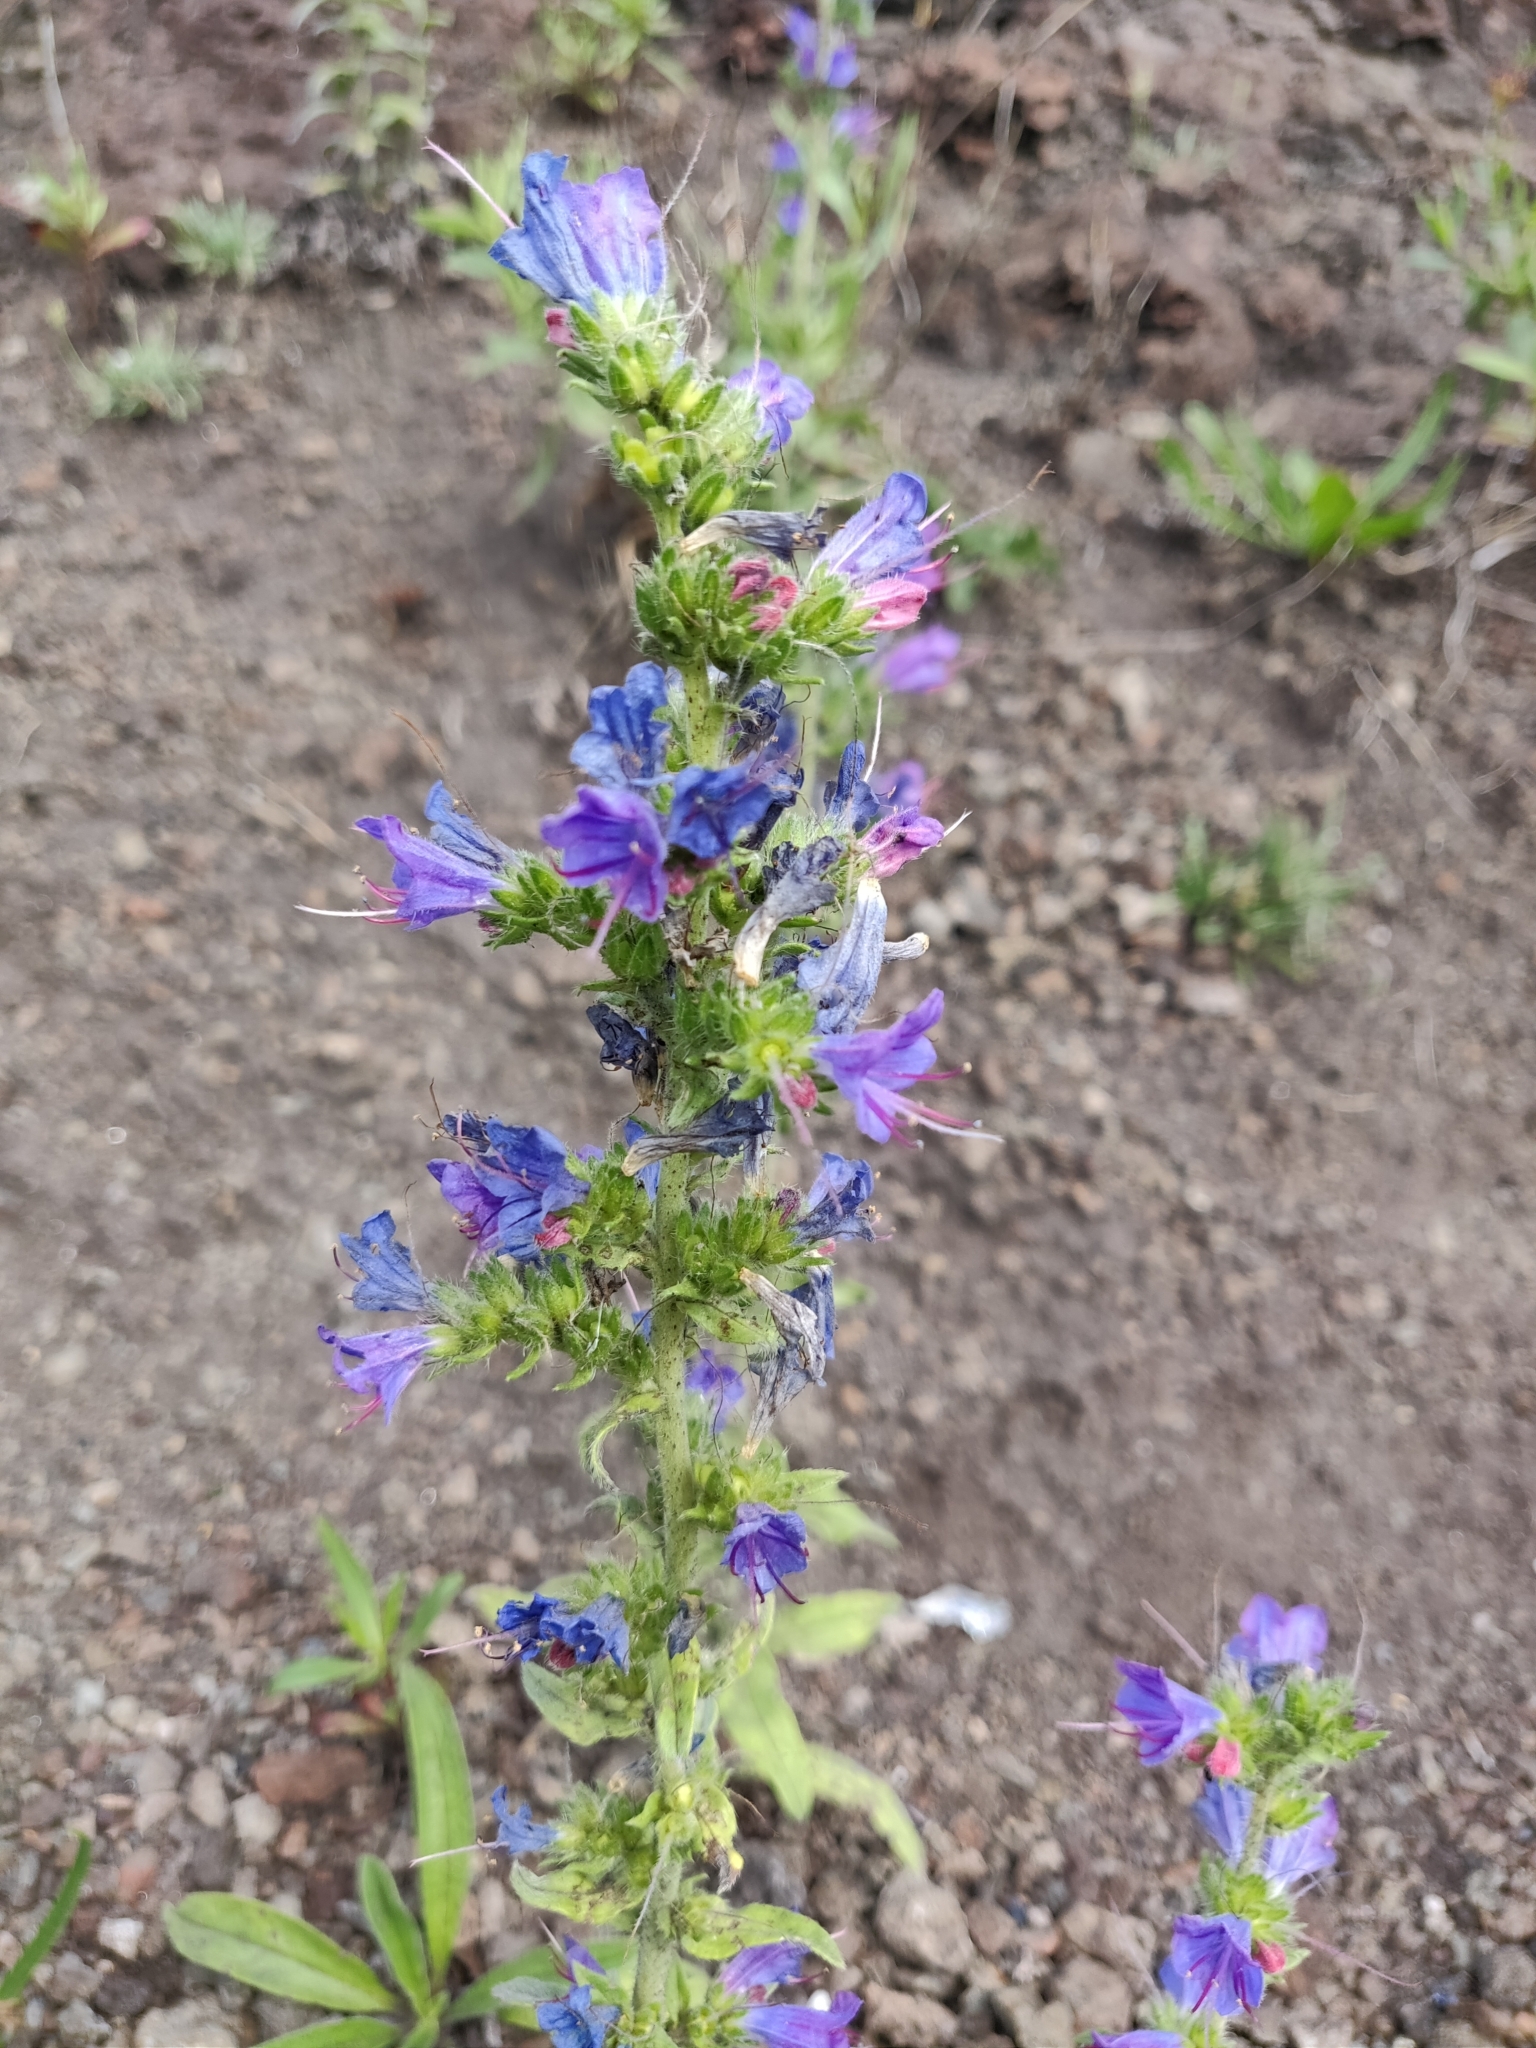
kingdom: Plantae
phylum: Tracheophyta
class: Magnoliopsida
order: Boraginales
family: Boraginaceae
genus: Echium
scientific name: Echium vulgare
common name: Common viper's bugloss
